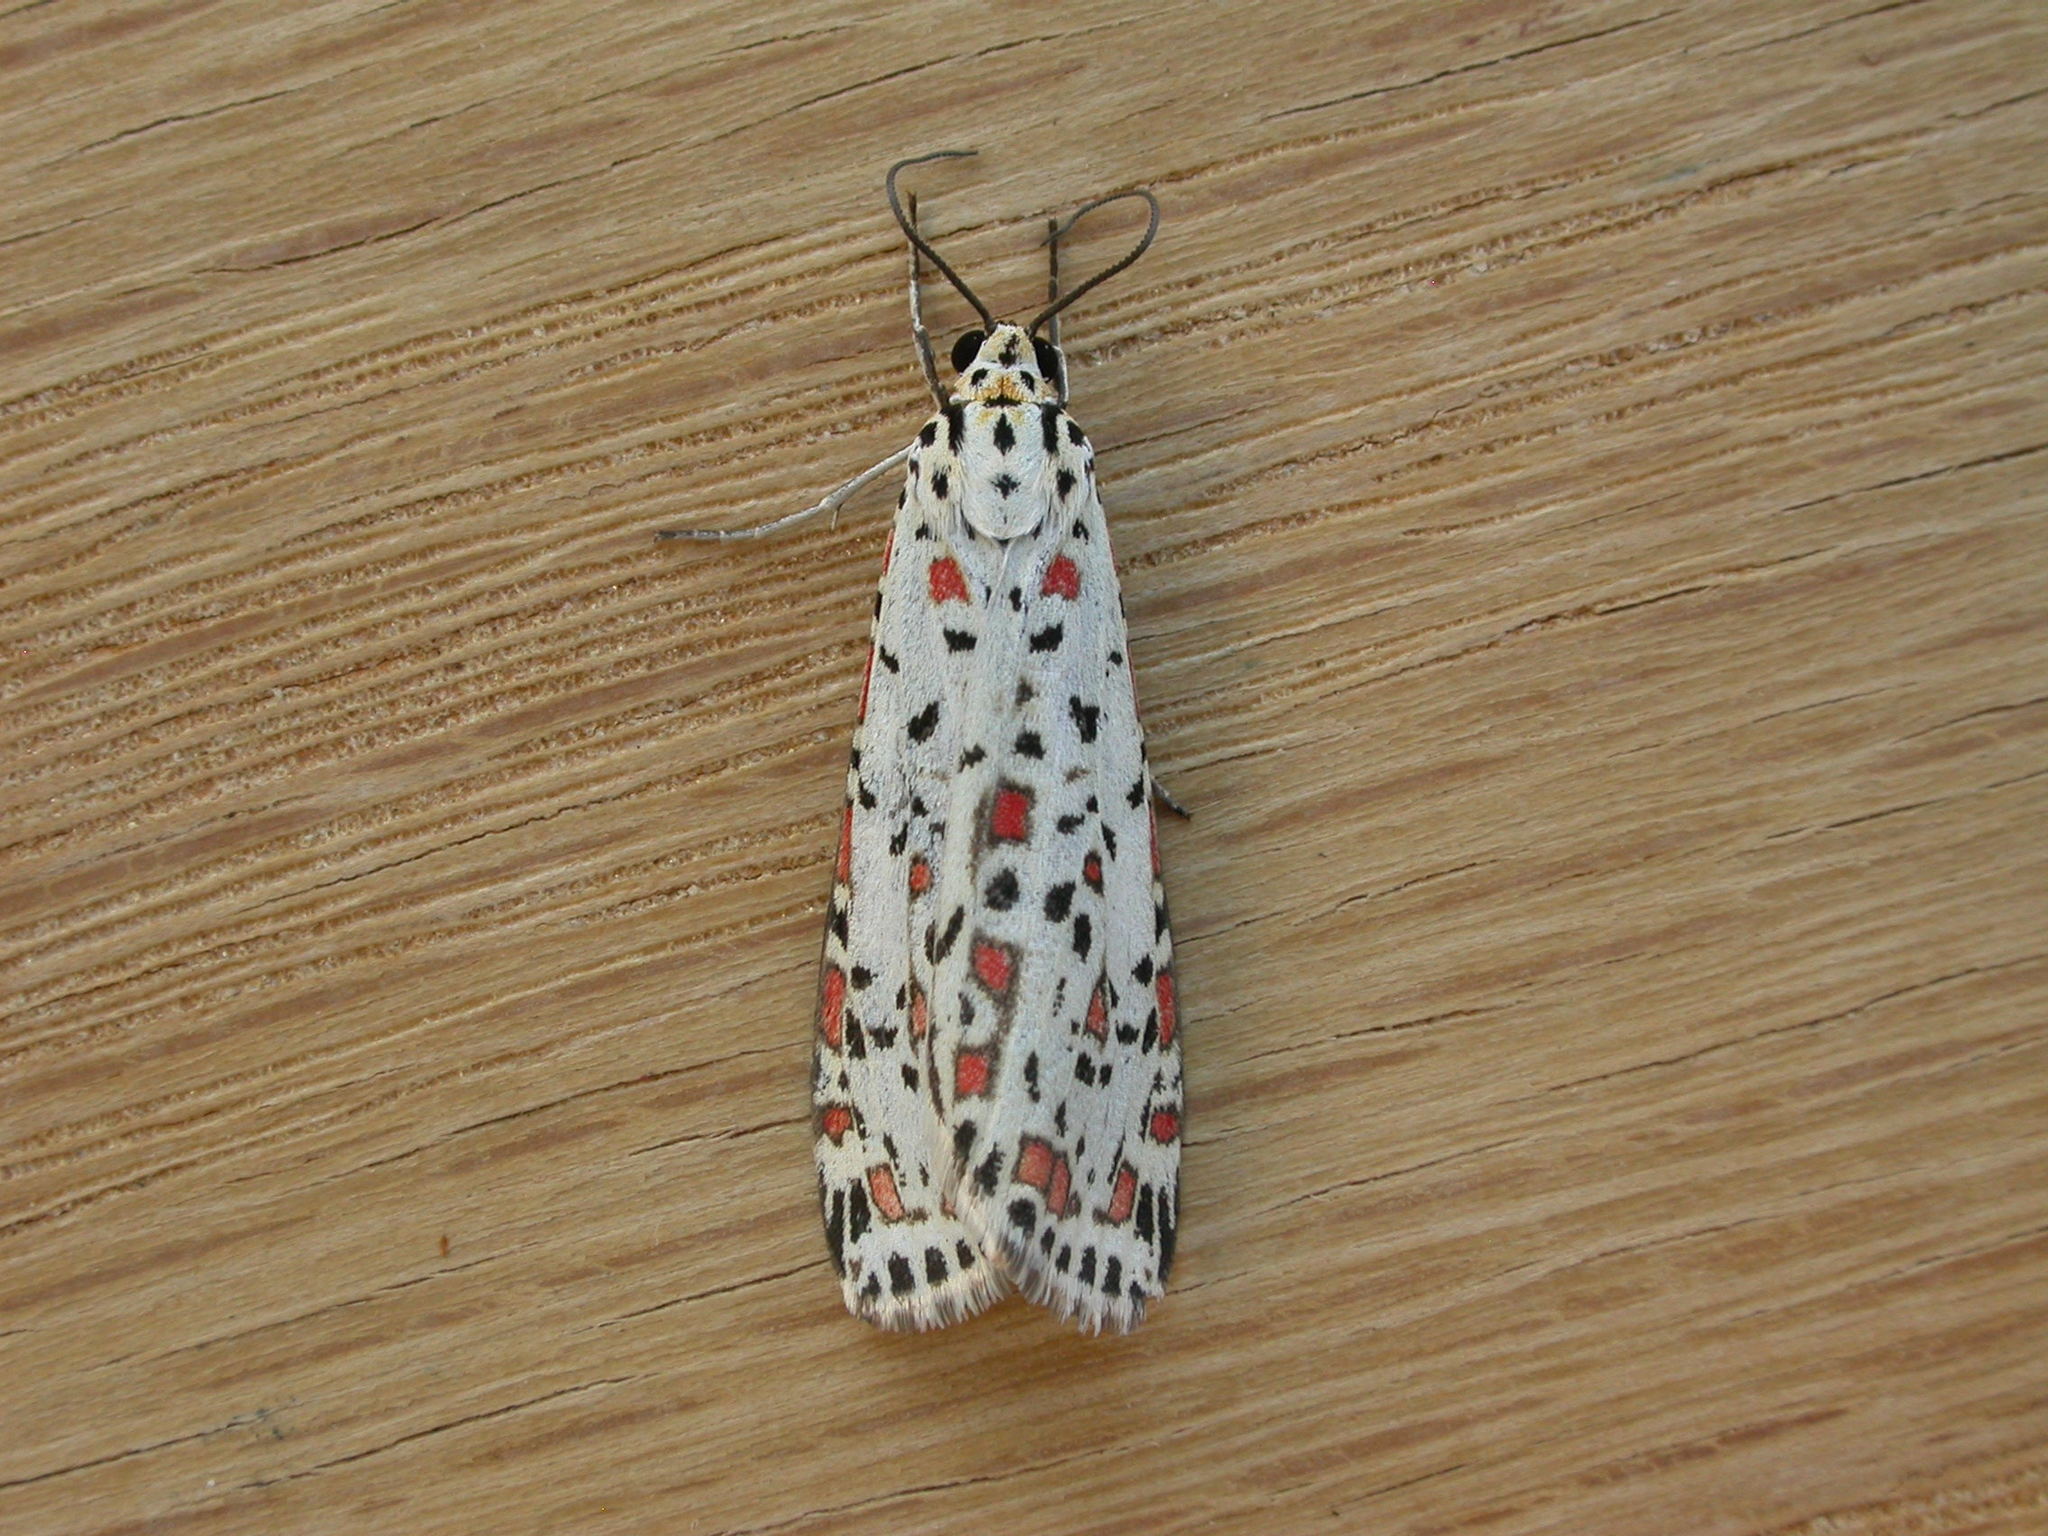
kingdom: Animalia
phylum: Arthropoda
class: Insecta
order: Lepidoptera
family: Erebidae
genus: Utetheisa
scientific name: Utetheisa pulchelloides
